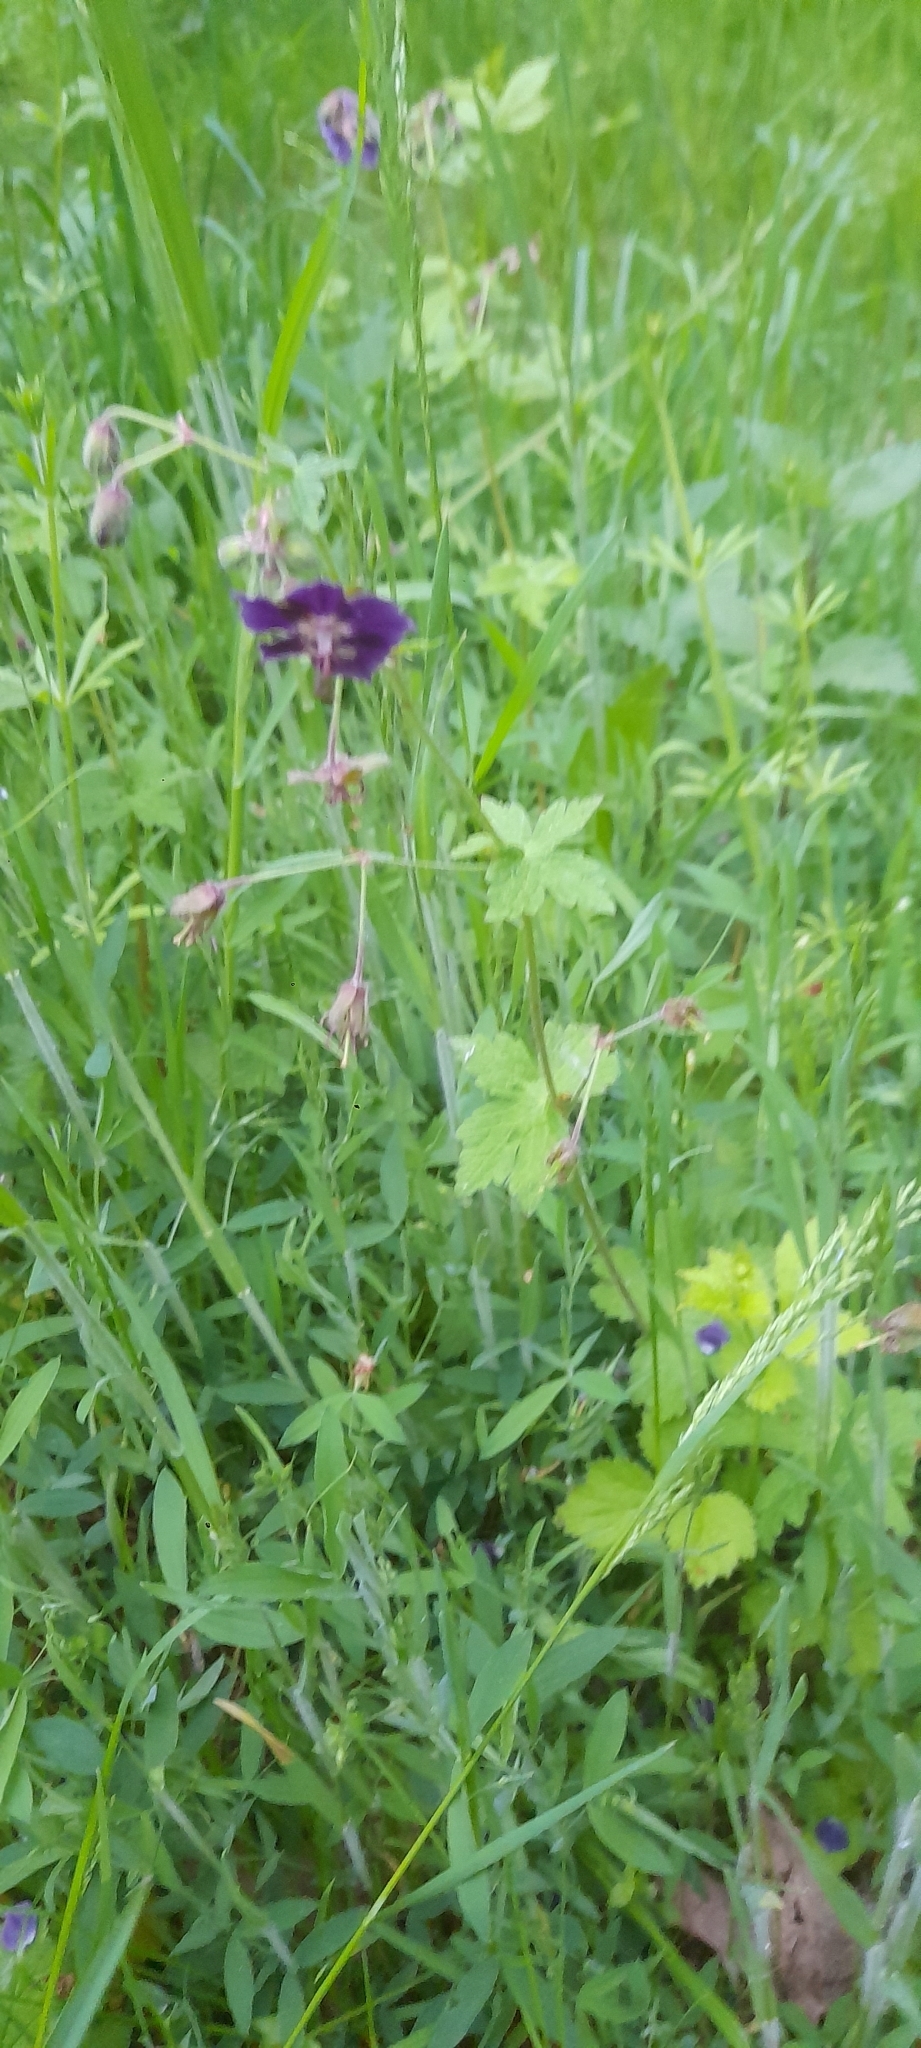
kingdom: Plantae
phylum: Tracheophyta
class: Magnoliopsida
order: Geraniales
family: Geraniaceae
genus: Geranium
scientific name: Geranium phaeum
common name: Dusky crane's-bill
